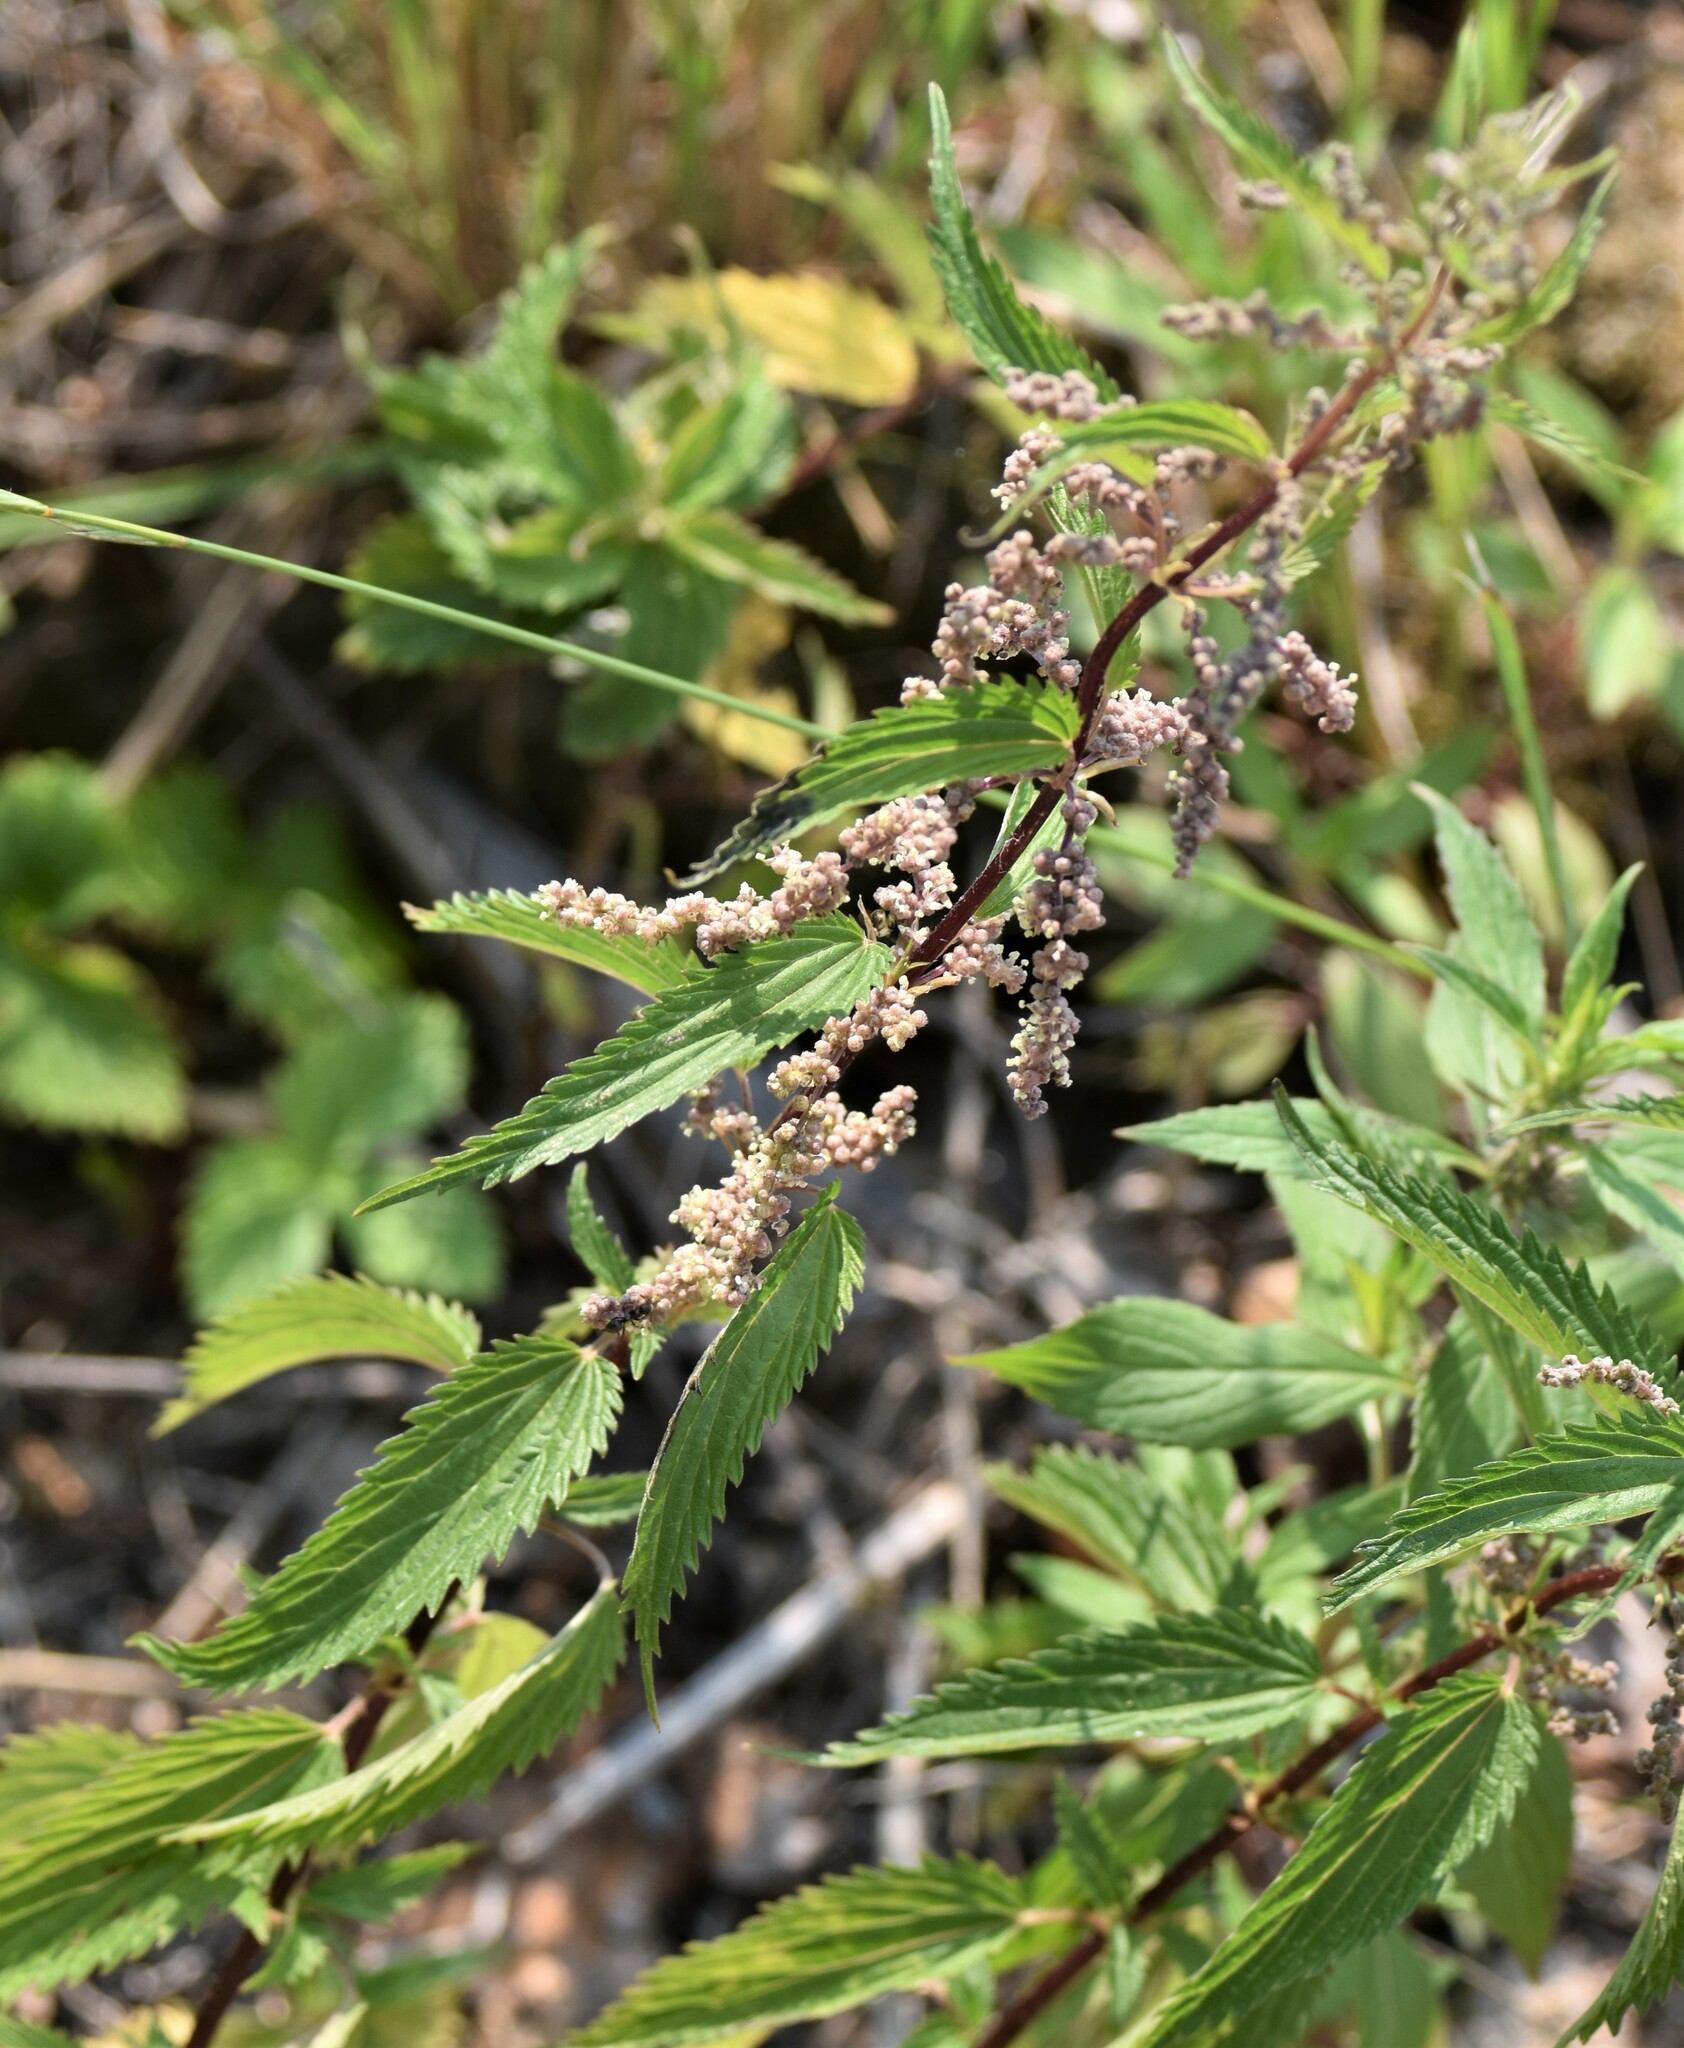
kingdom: Plantae
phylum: Tracheophyta
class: Magnoliopsida
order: Rosales
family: Urticaceae
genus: Urtica
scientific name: Urtica gracilis
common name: Slender stinging nettle
